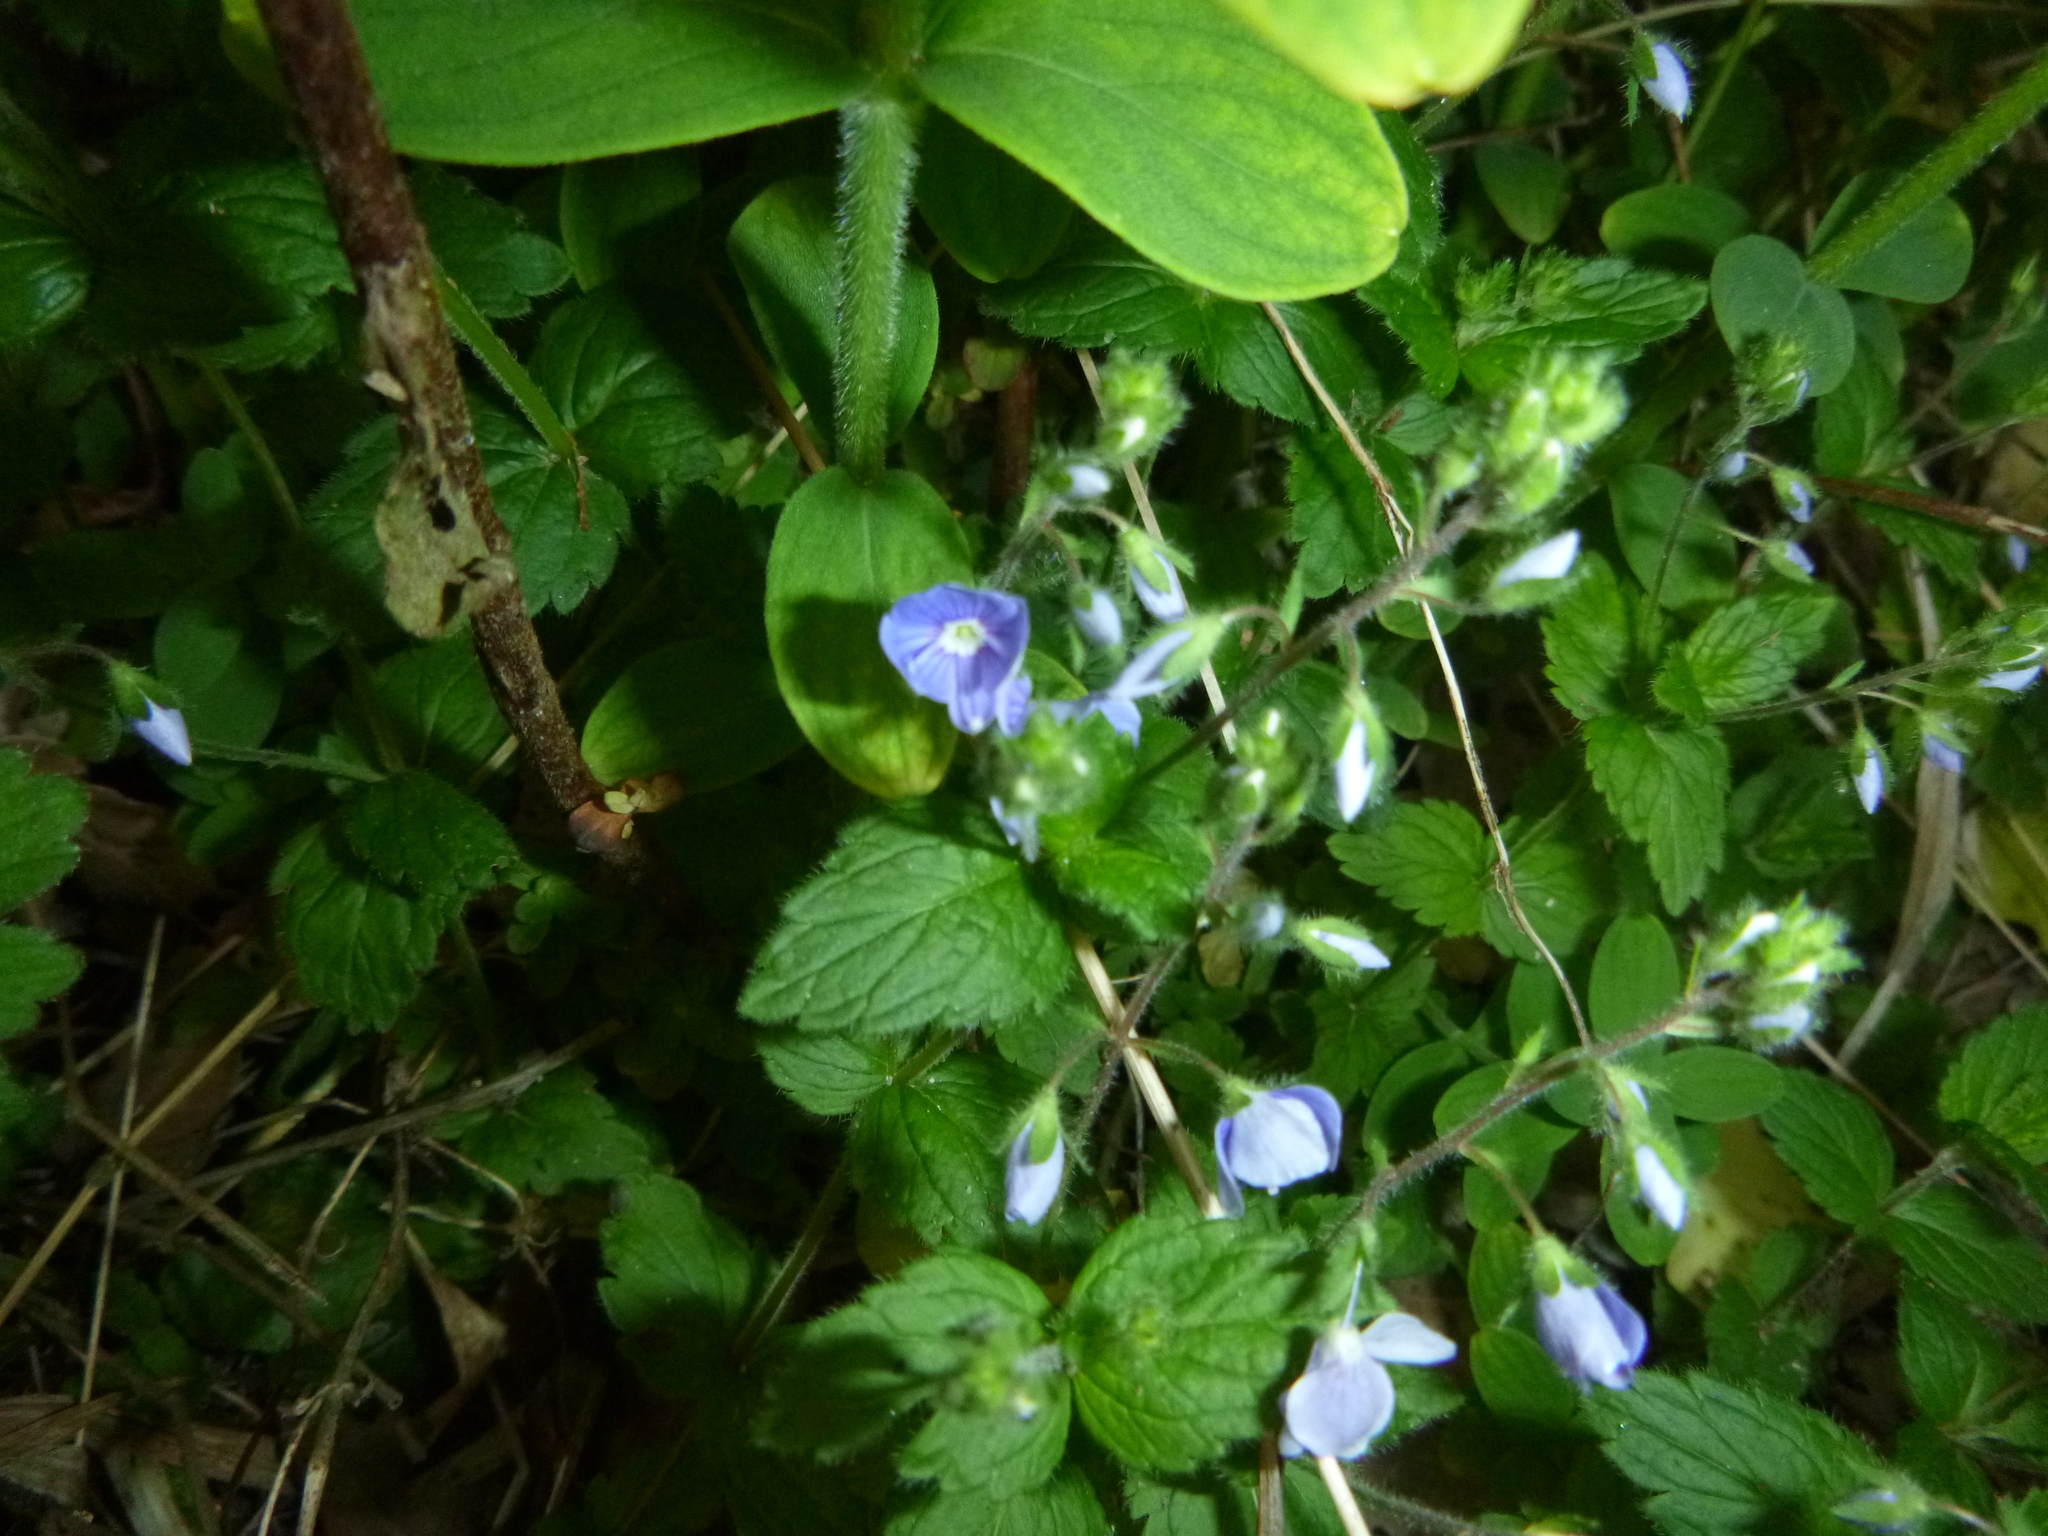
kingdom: Plantae
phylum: Tracheophyta
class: Magnoliopsida
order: Lamiales
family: Plantaginaceae
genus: Veronica
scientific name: Veronica chamaedrys
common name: Germander speedwell
